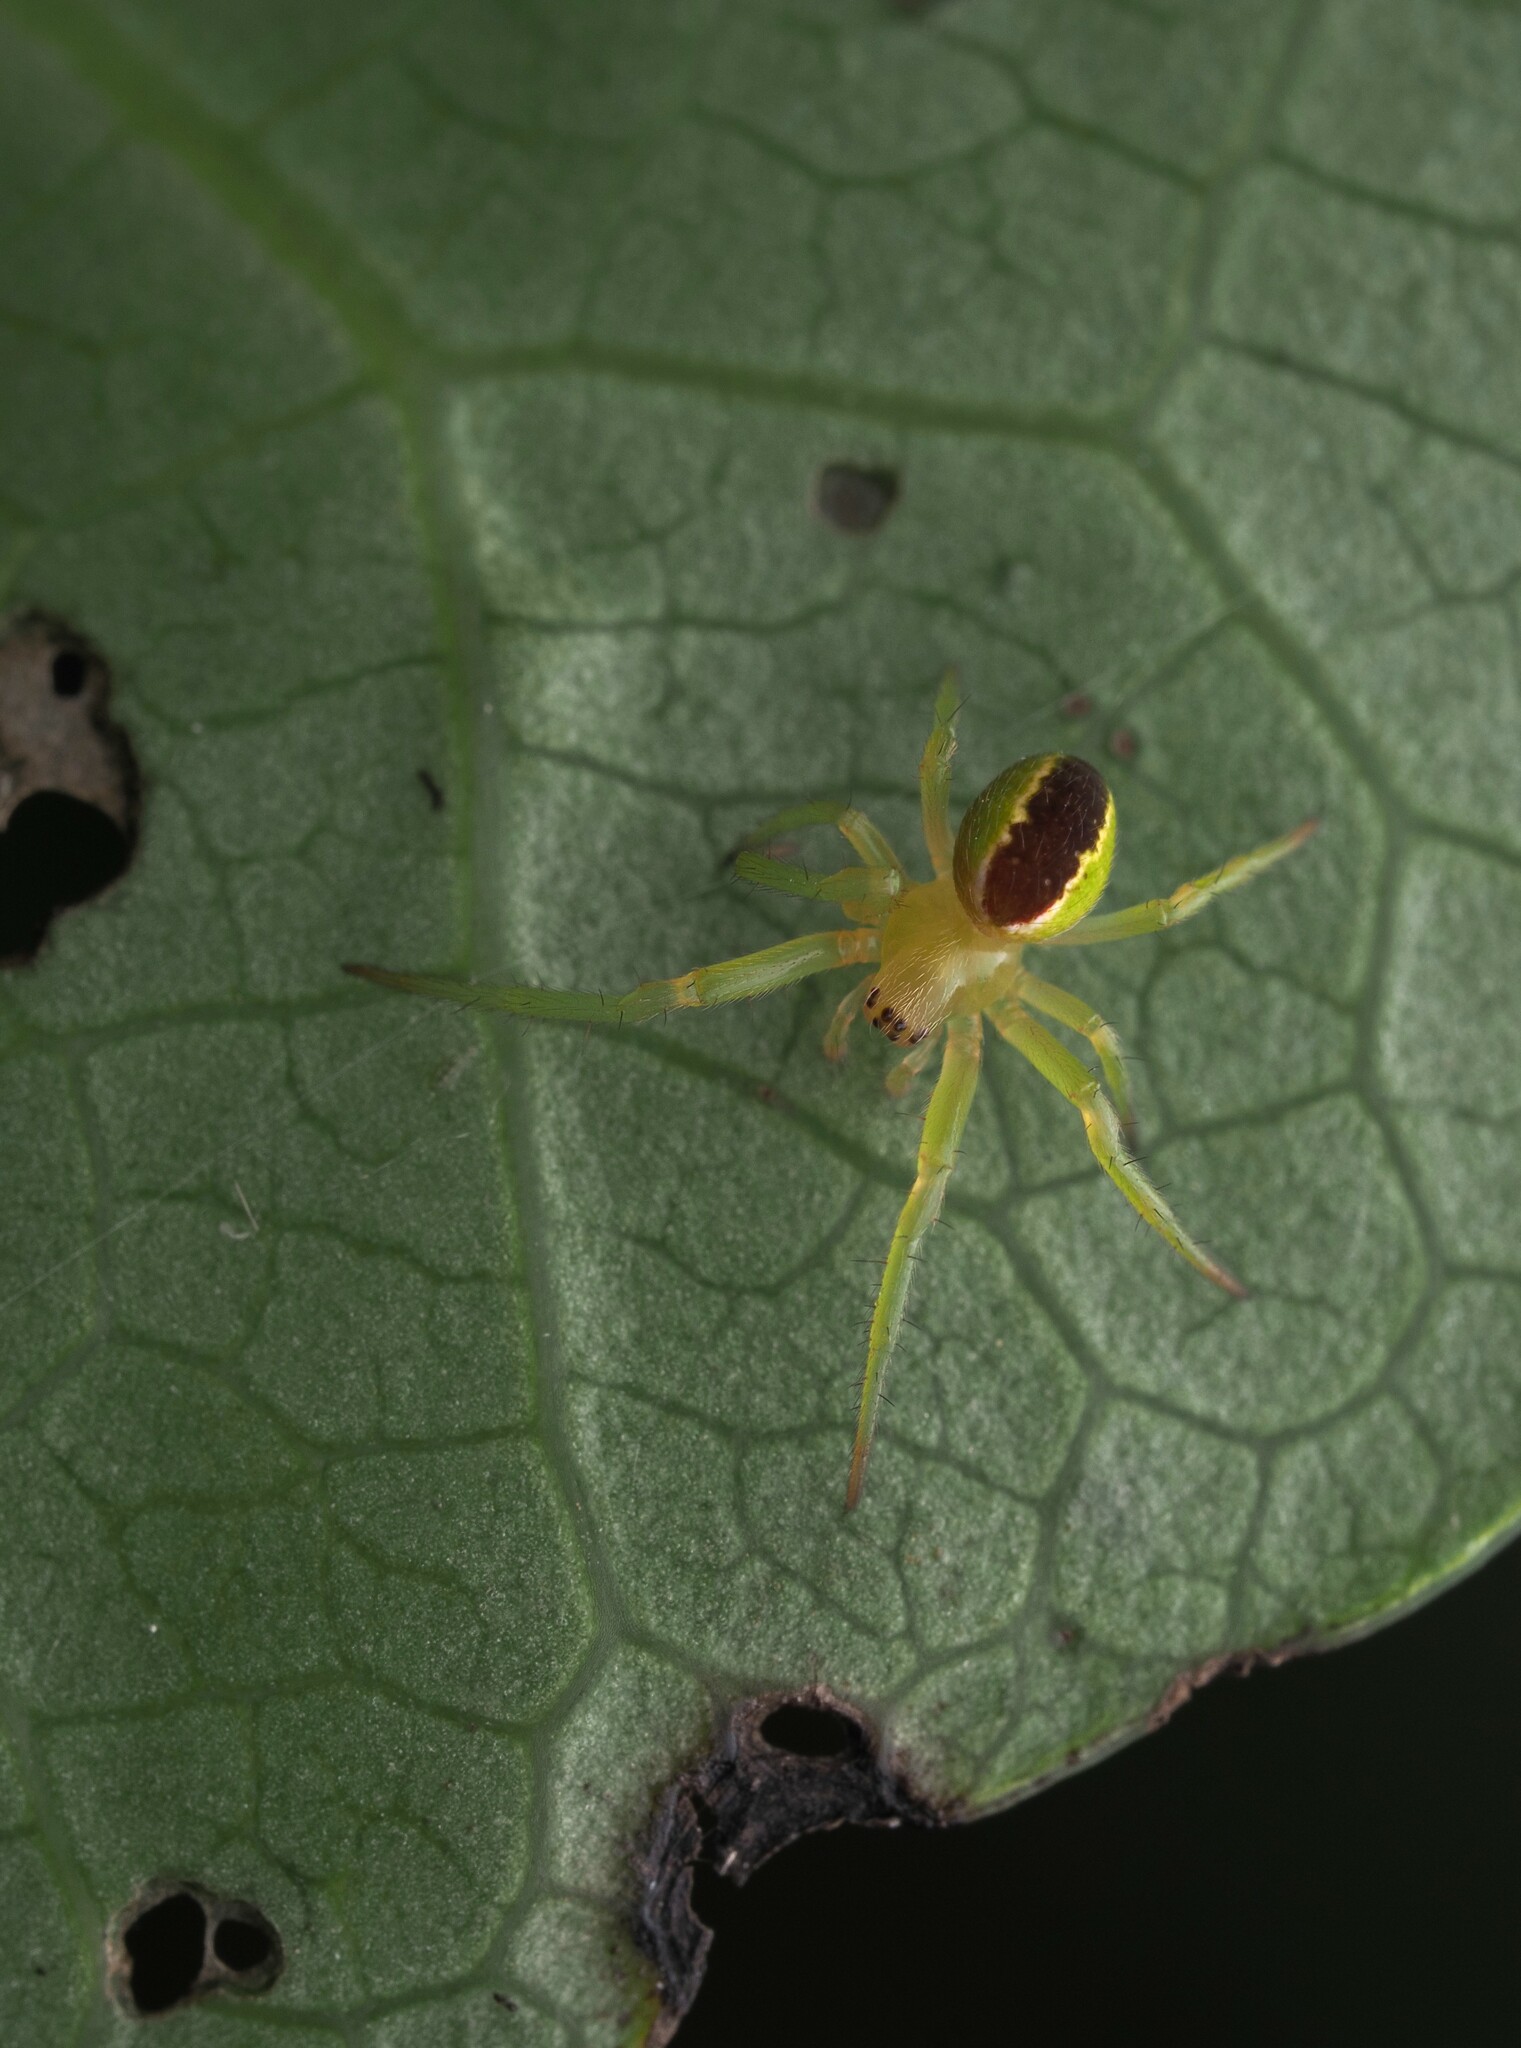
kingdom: Animalia
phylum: Arthropoda
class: Arachnida
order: Araneae
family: Araneidae
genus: Colaranea
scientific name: Colaranea melanoviridis
